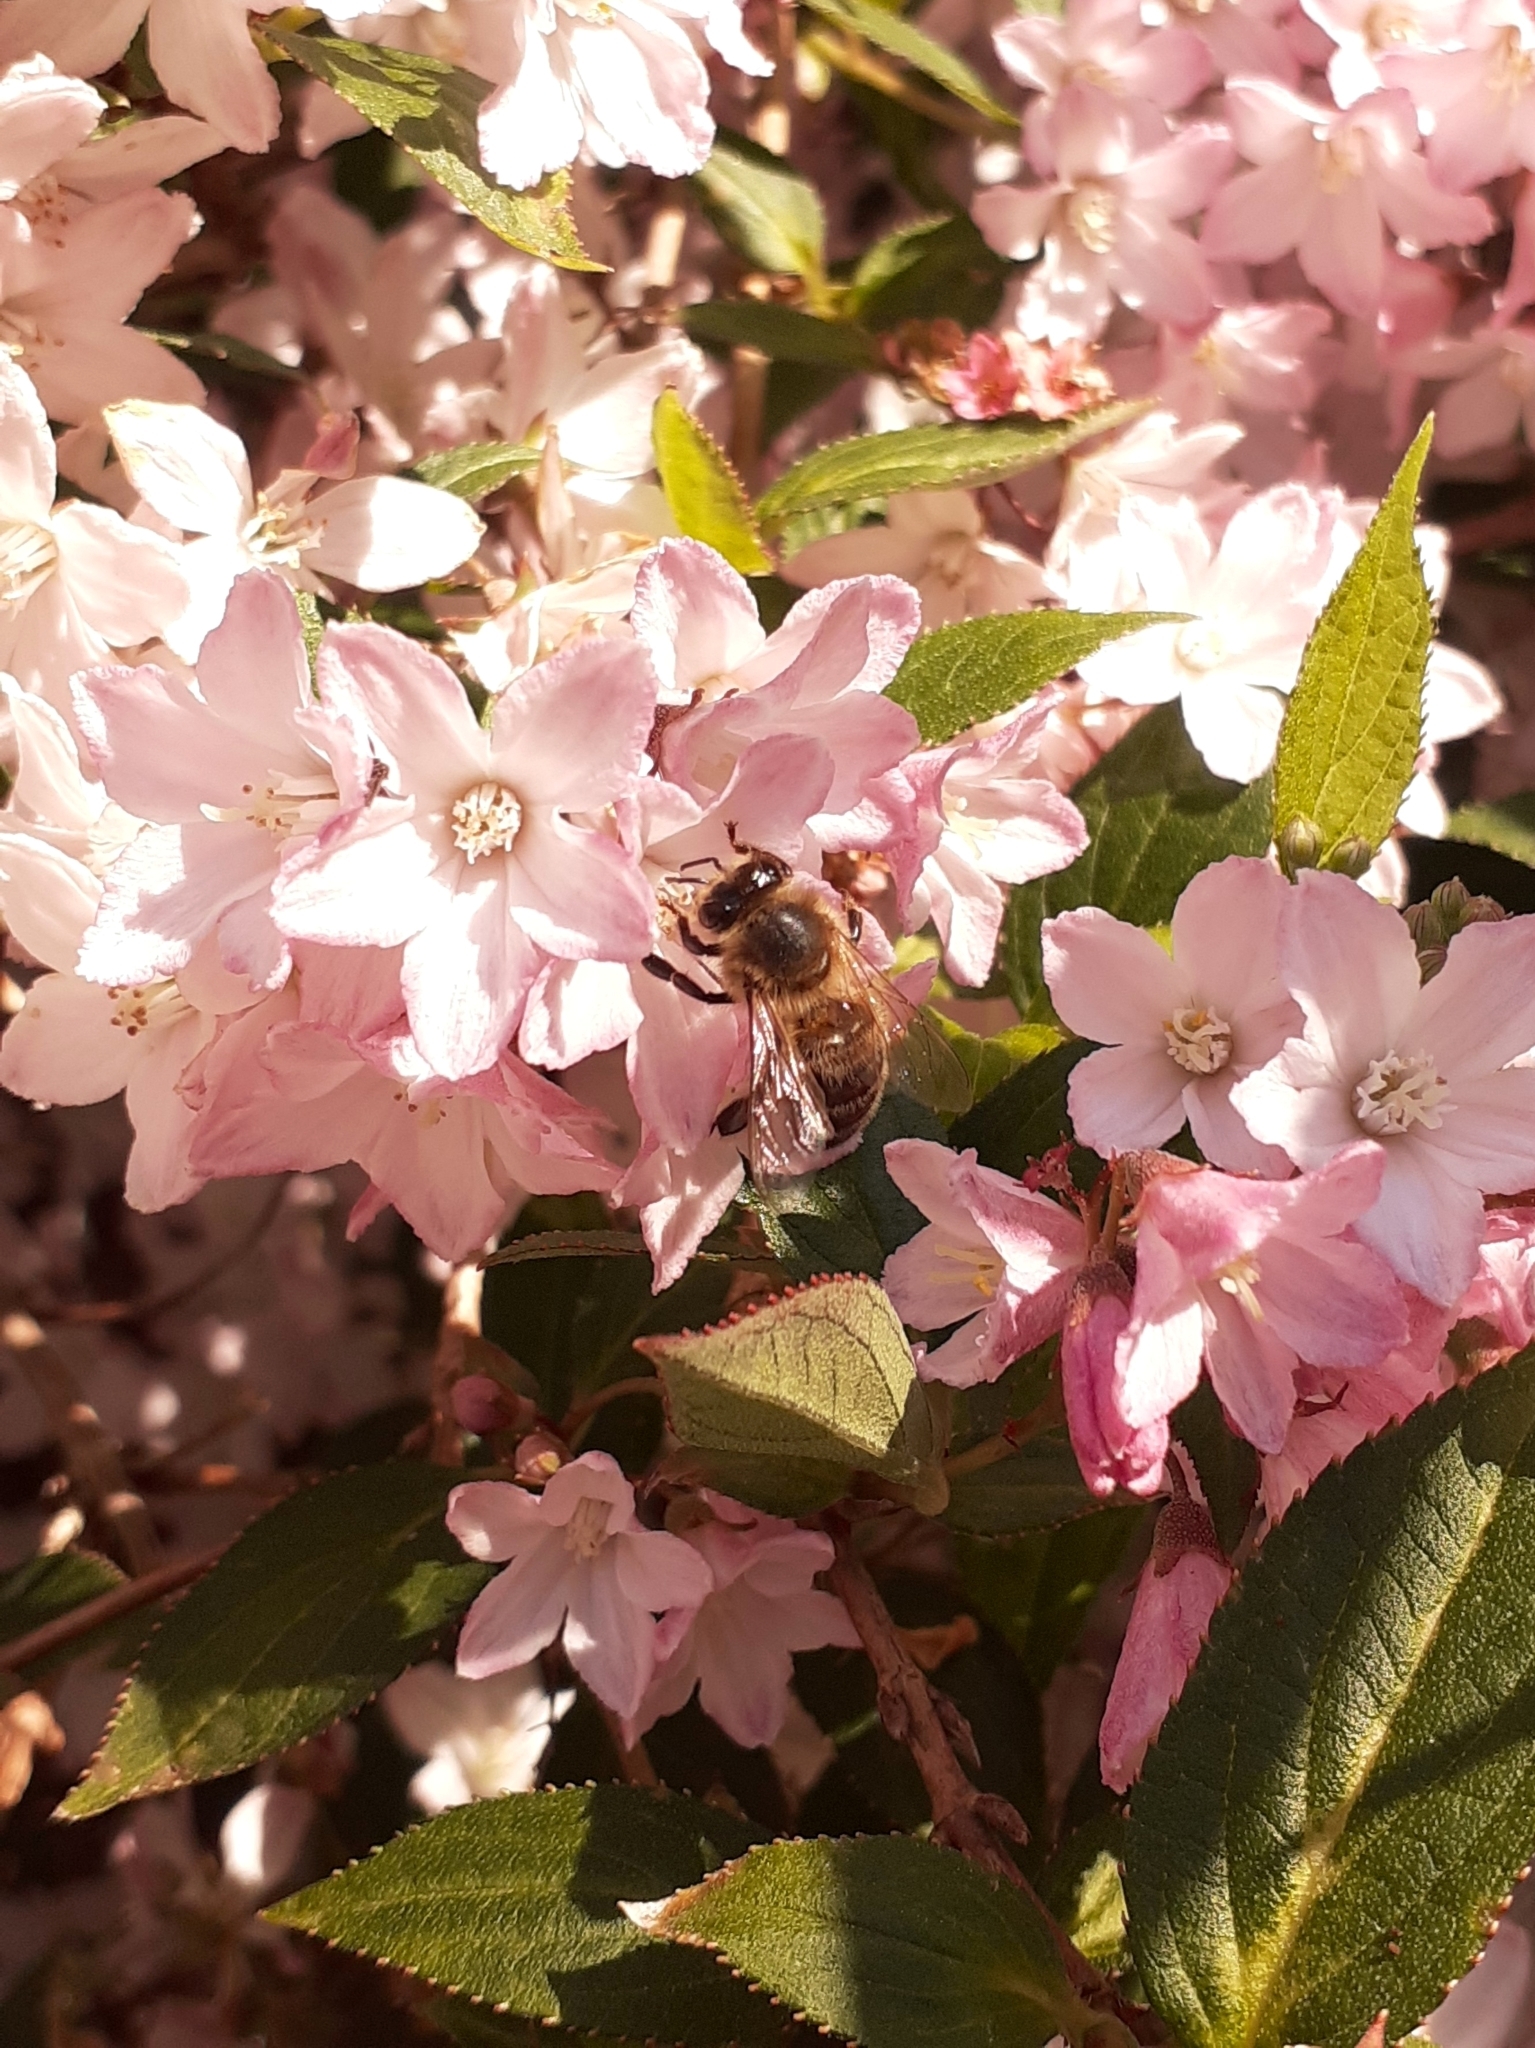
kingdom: Animalia
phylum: Arthropoda
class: Insecta
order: Hymenoptera
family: Apidae
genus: Apis
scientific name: Apis mellifera
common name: Honey bee
